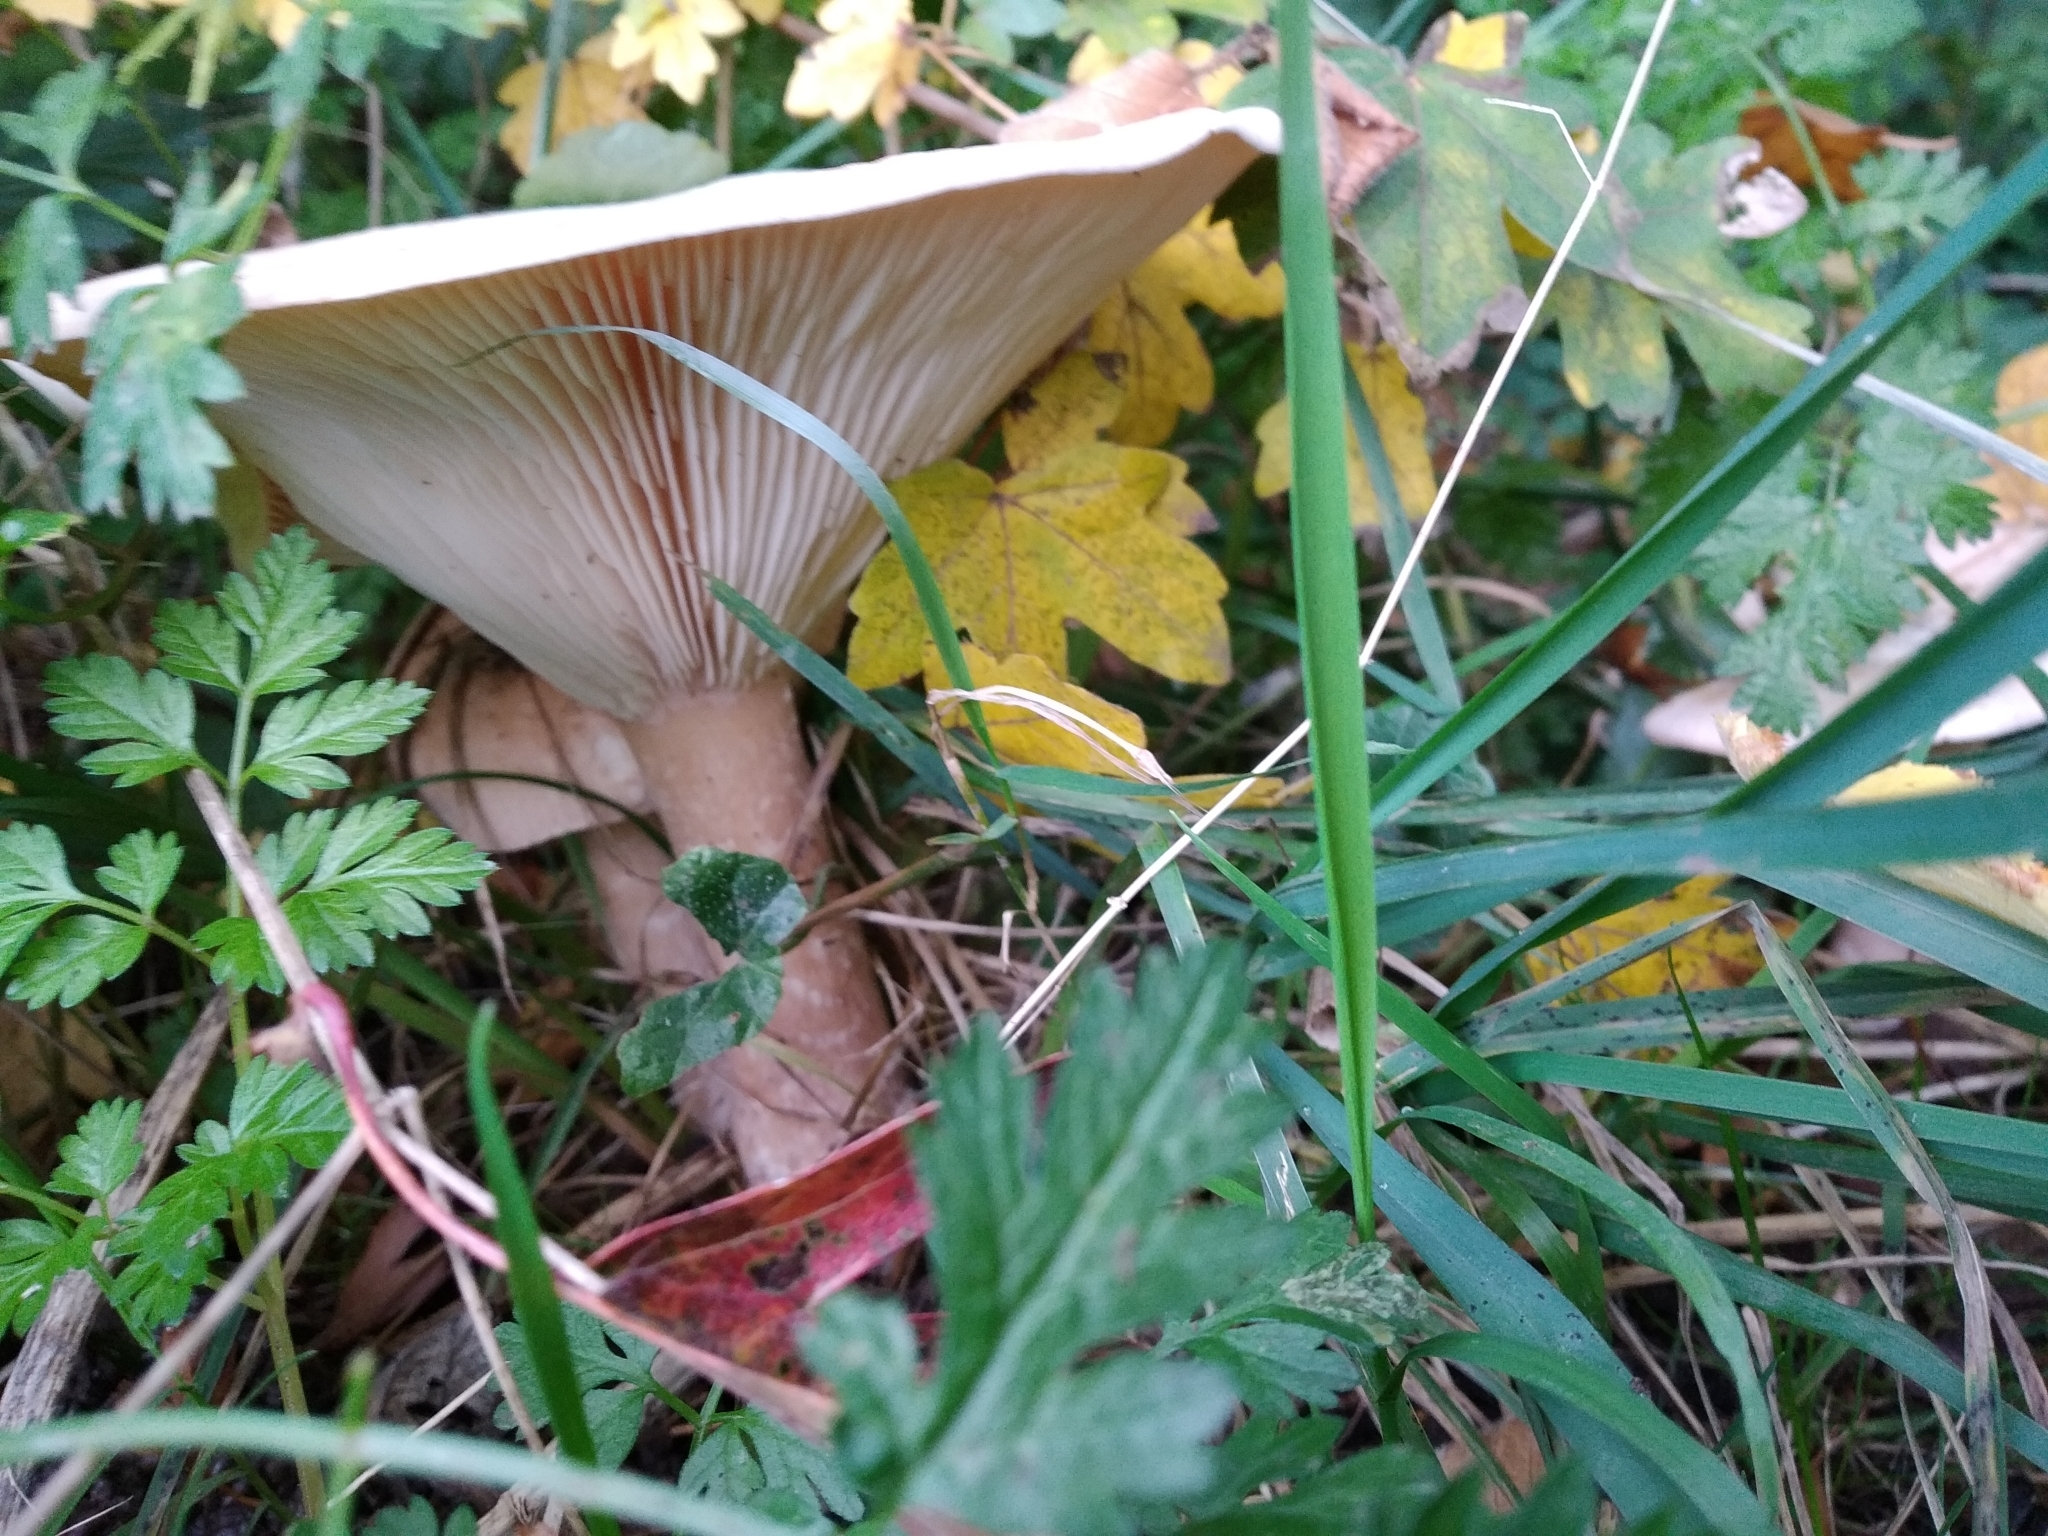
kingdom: Fungi
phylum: Basidiomycota
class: Agaricomycetes
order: Agaricales
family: Tricholomataceae
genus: Infundibulicybe
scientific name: Infundibulicybe geotropa
